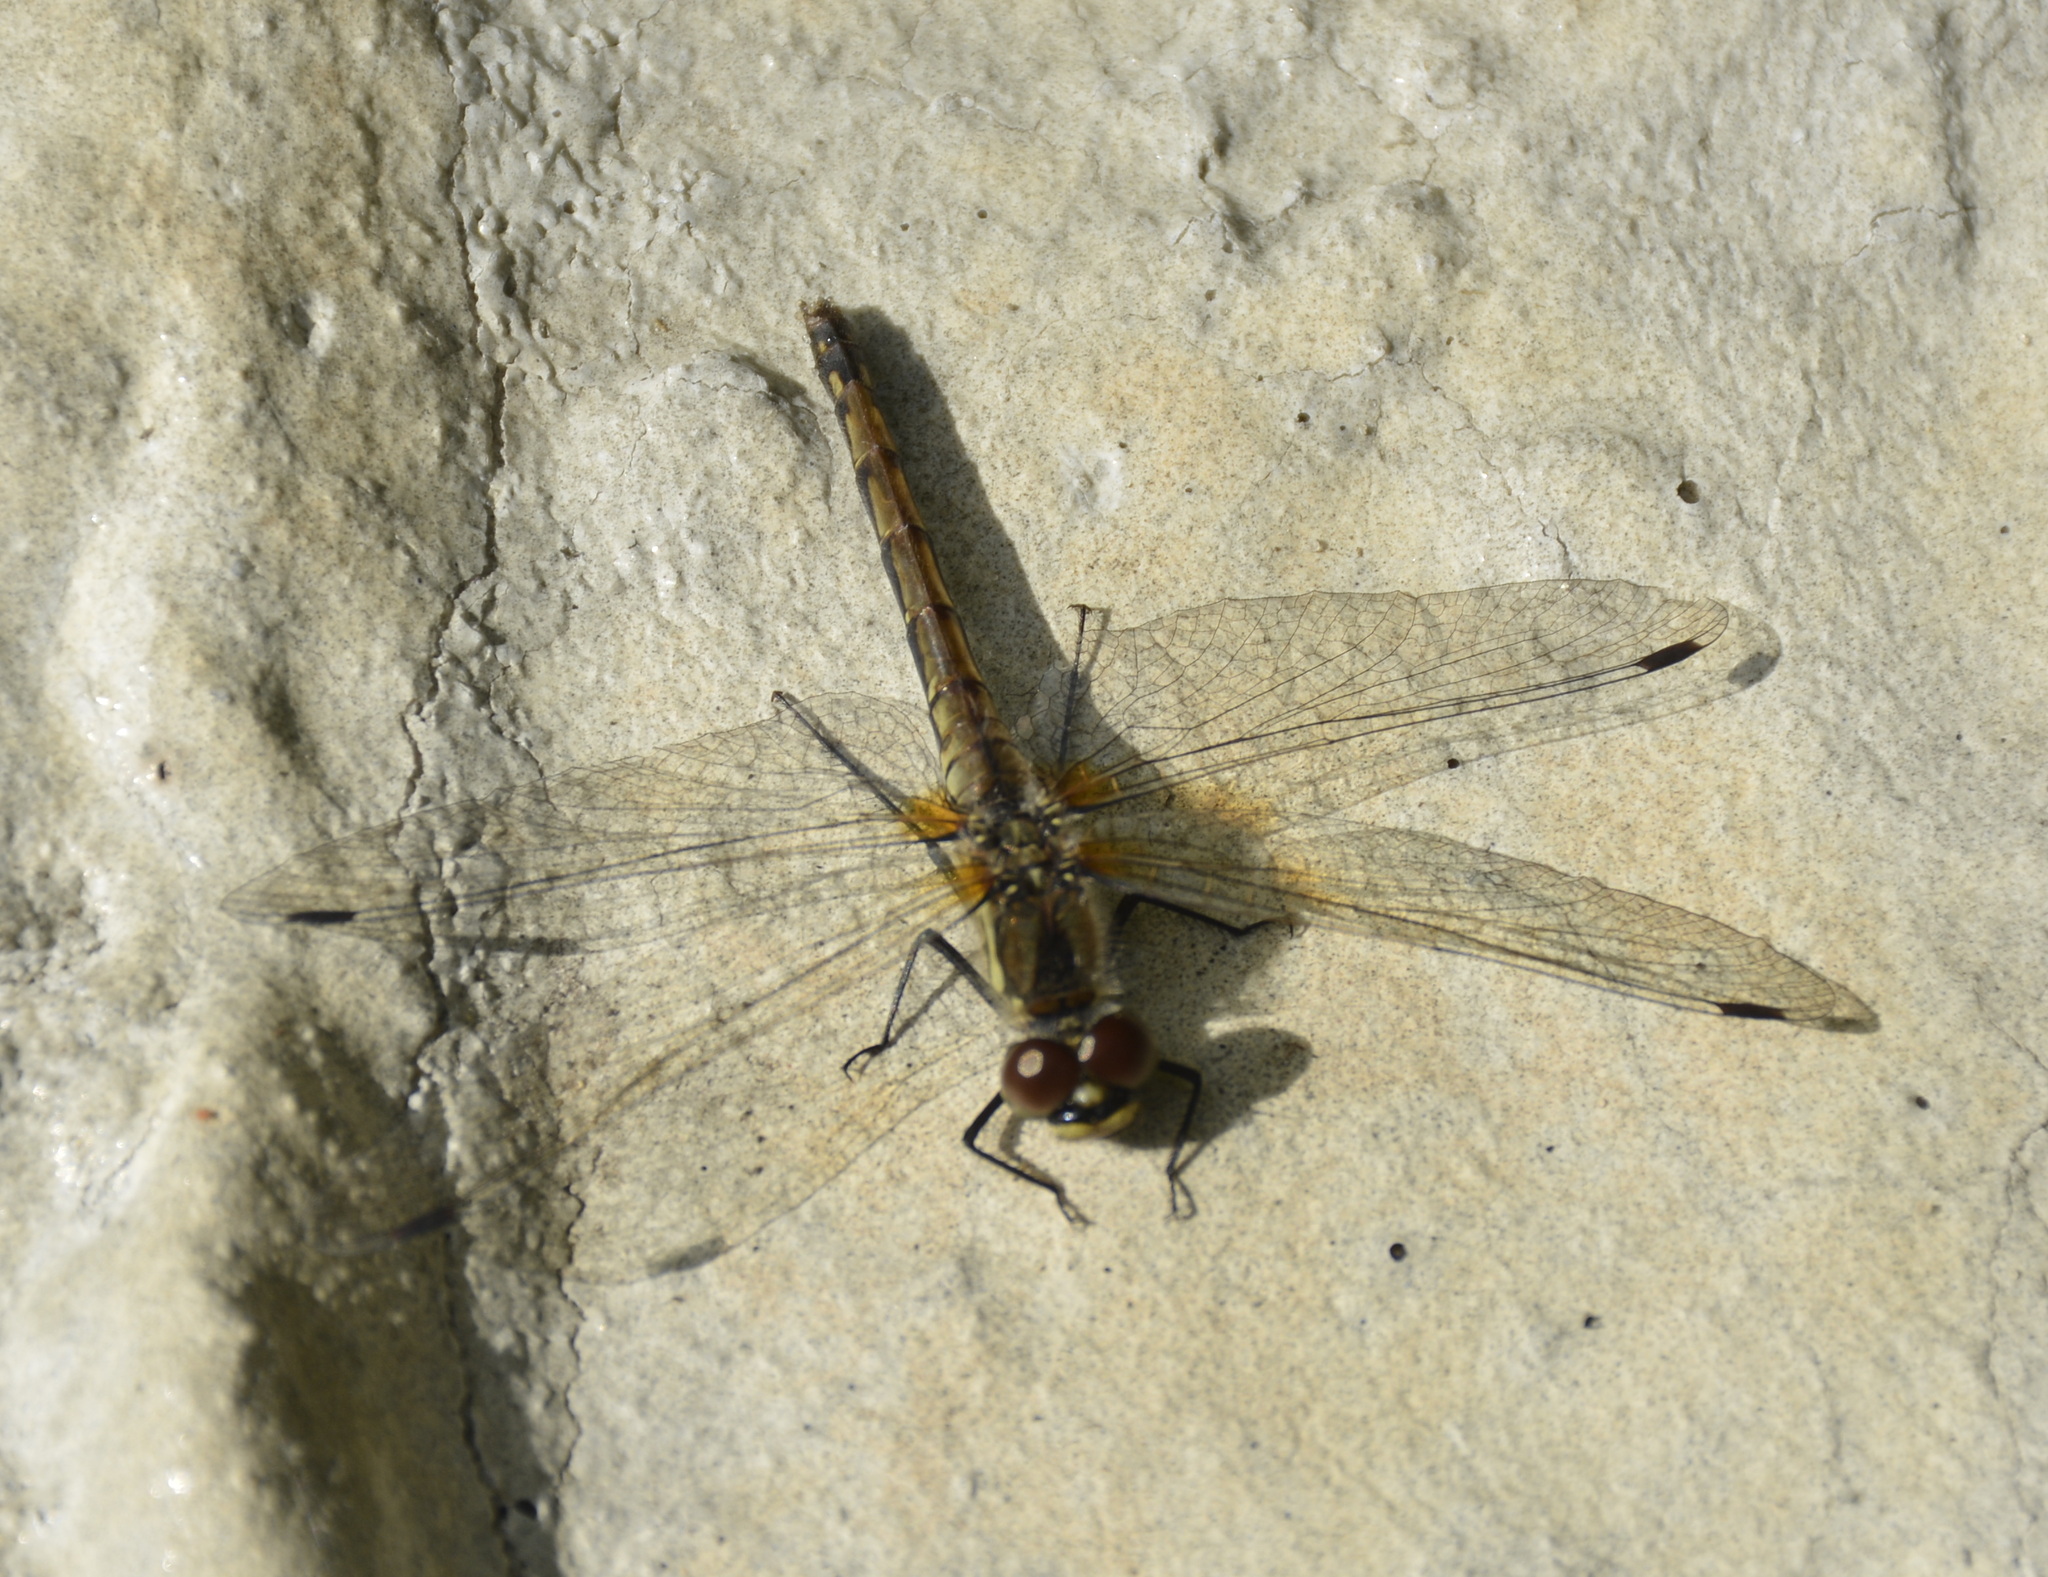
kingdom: Animalia
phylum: Arthropoda
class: Insecta
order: Odonata
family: Libellulidae
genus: Sympetrum
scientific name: Sympetrum danae
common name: Black darter
